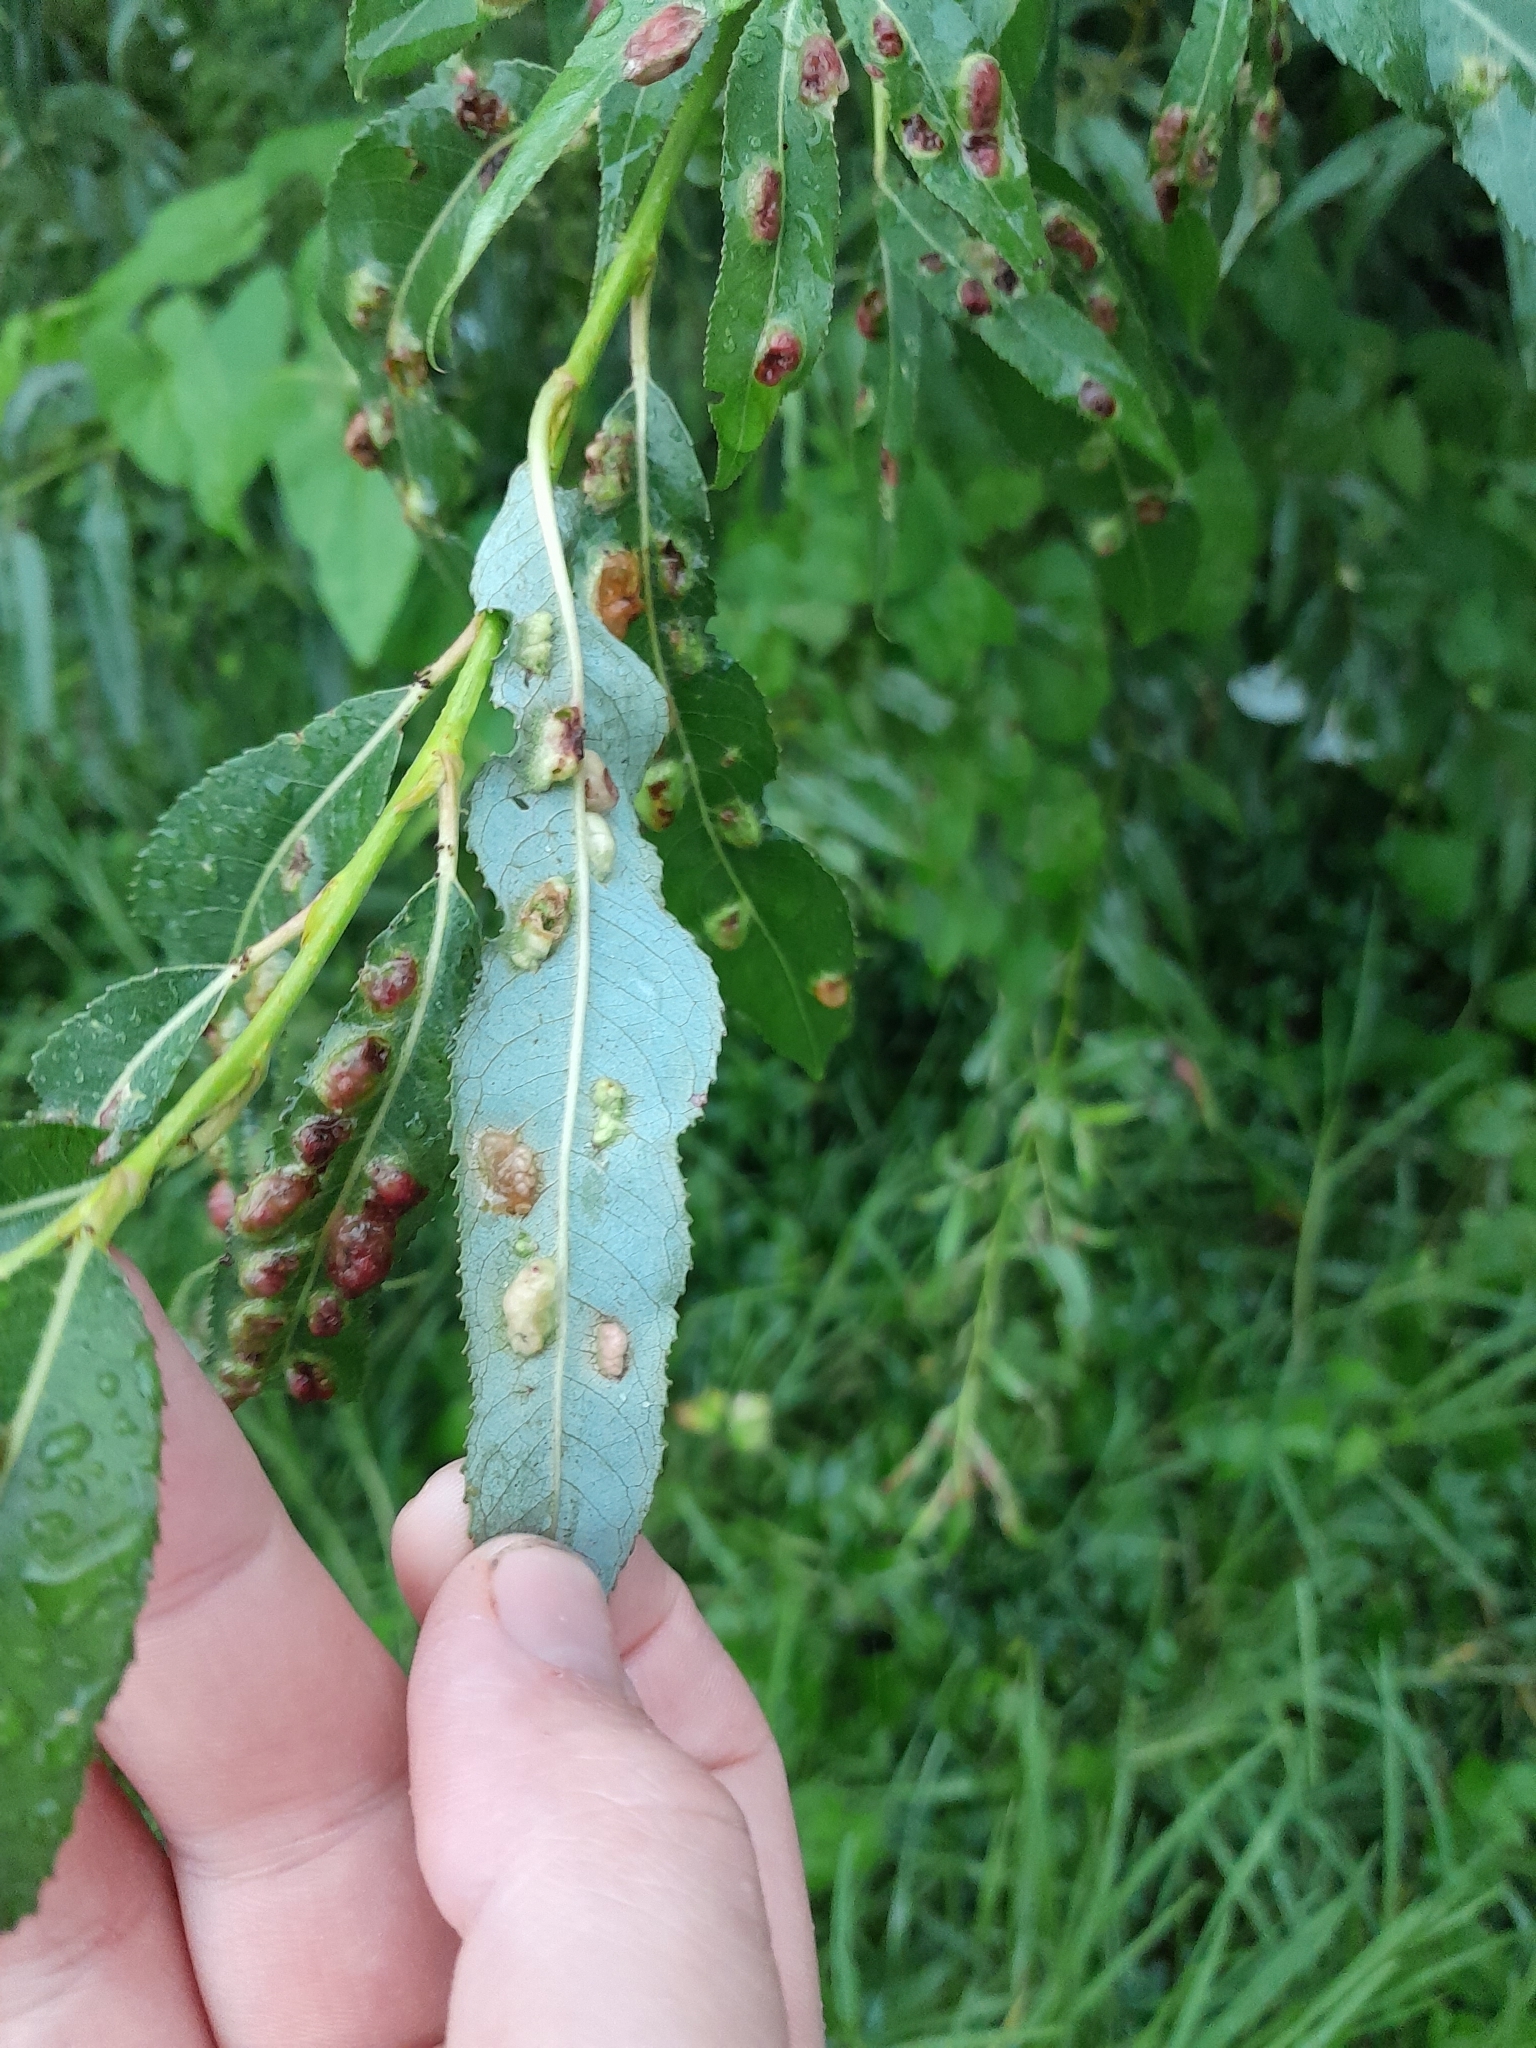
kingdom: Animalia
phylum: Arthropoda
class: Insecta
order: Hymenoptera
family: Tenthredinidae
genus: Pontania
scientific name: Pontania proxima
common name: Common sawfly
